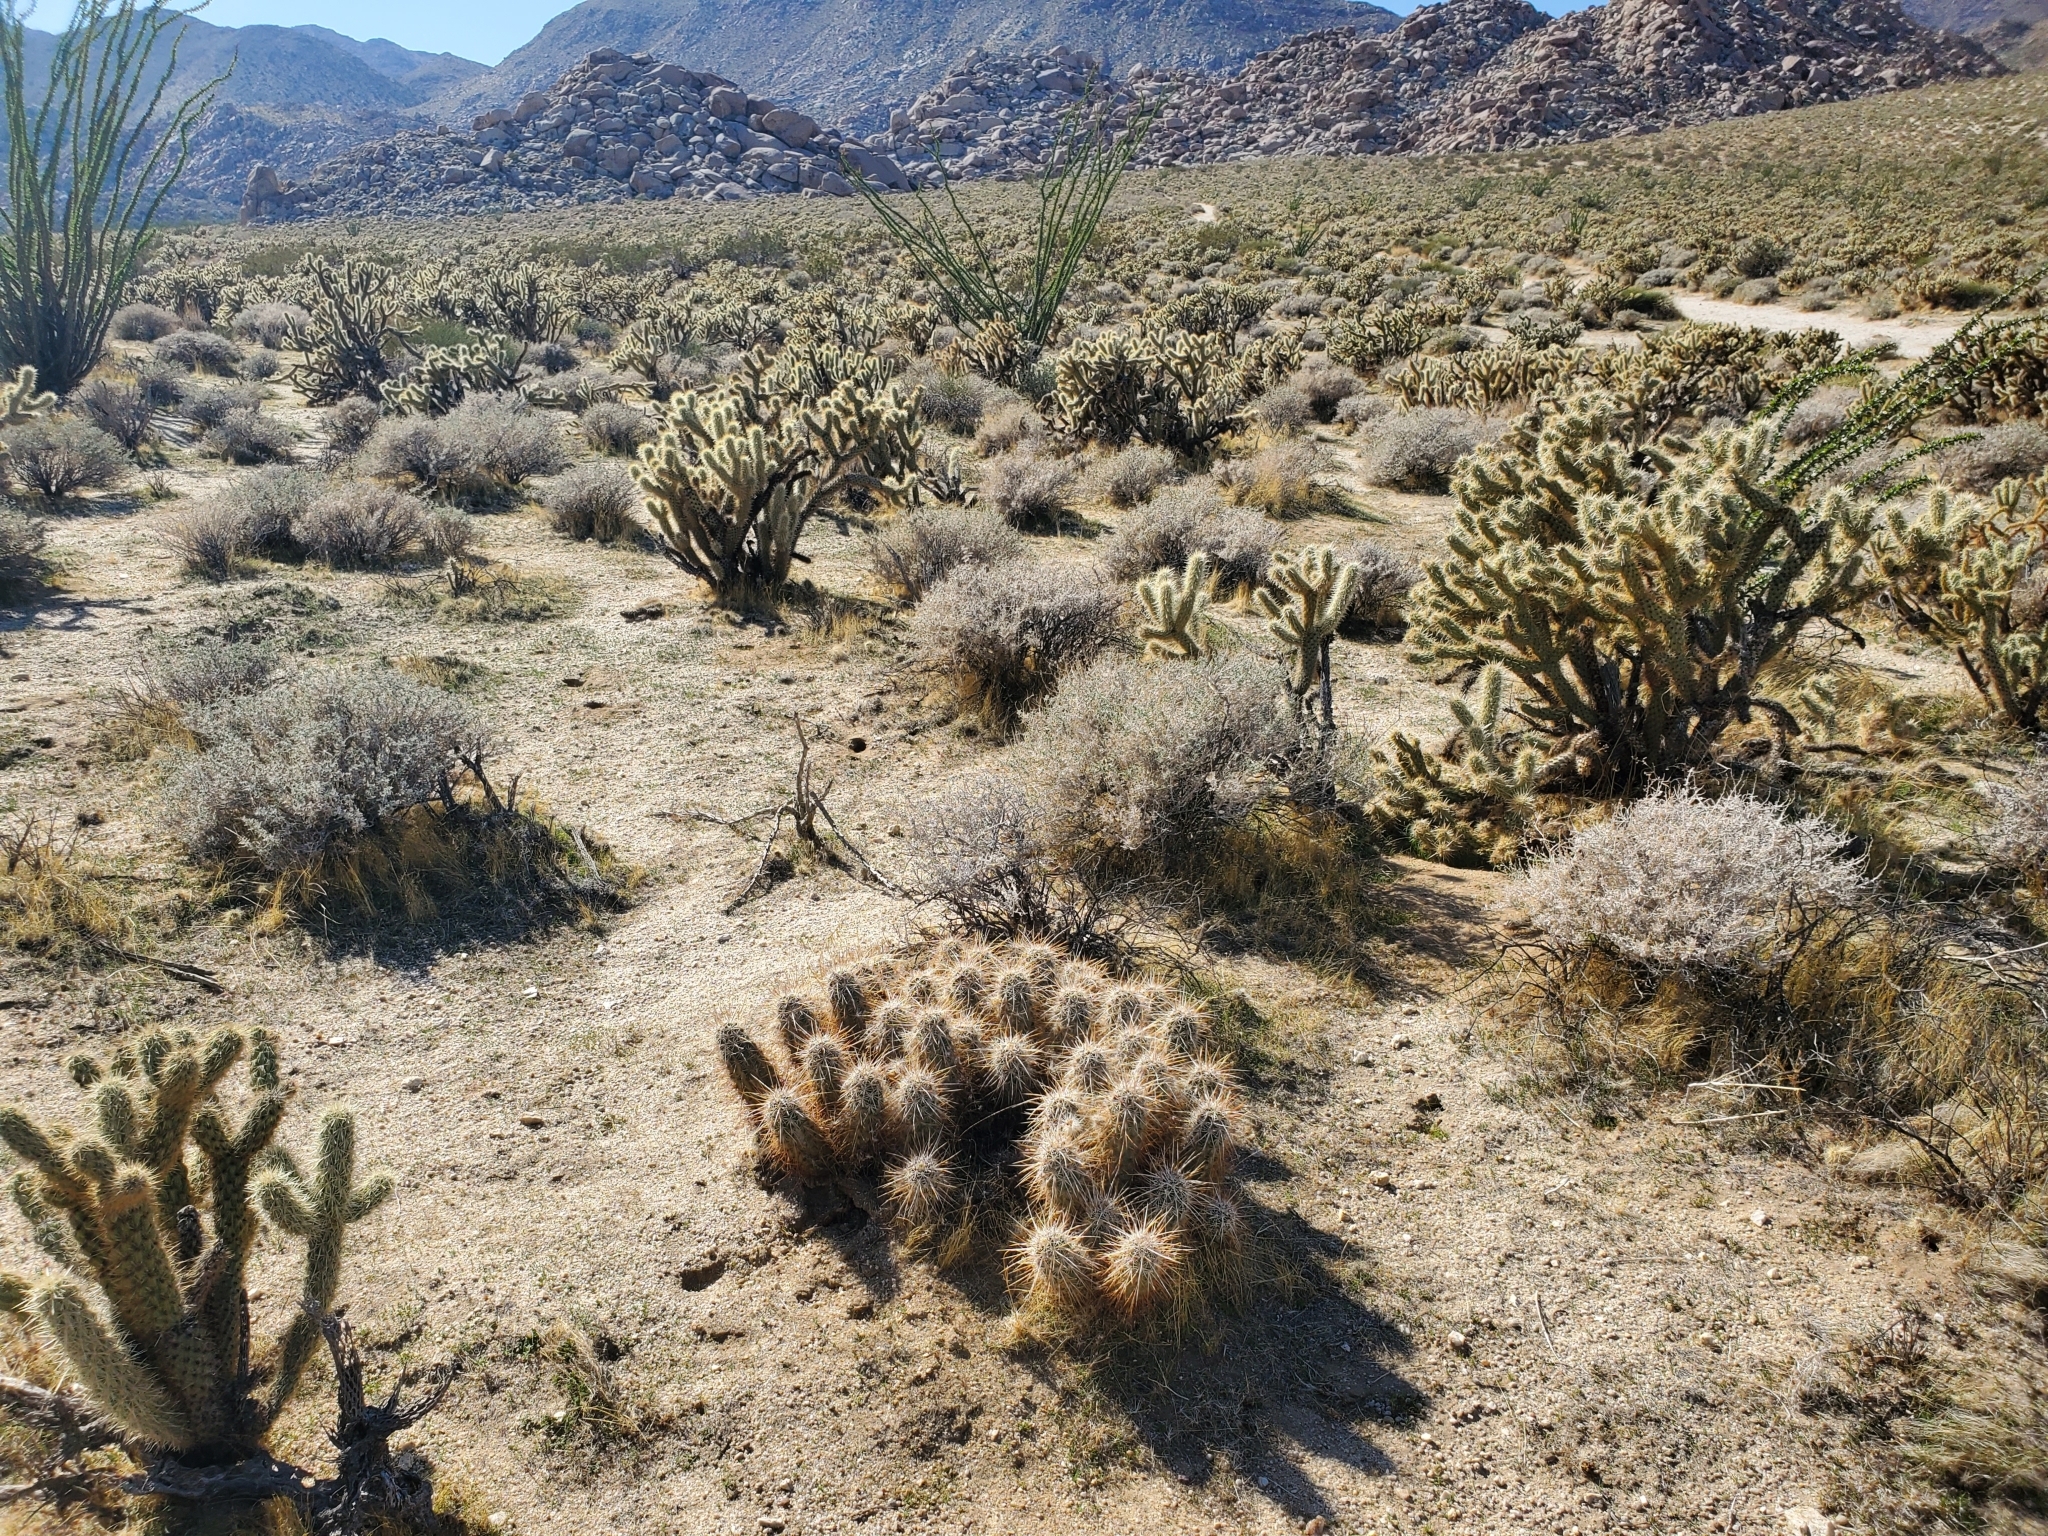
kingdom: Plantae
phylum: Tracheophyta
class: Magnoliopsida
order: Caryophyllales
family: Cactaceae
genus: Echinocereus
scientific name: Echinocereus engelmannii
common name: Engelmann's hedgehog cactus
